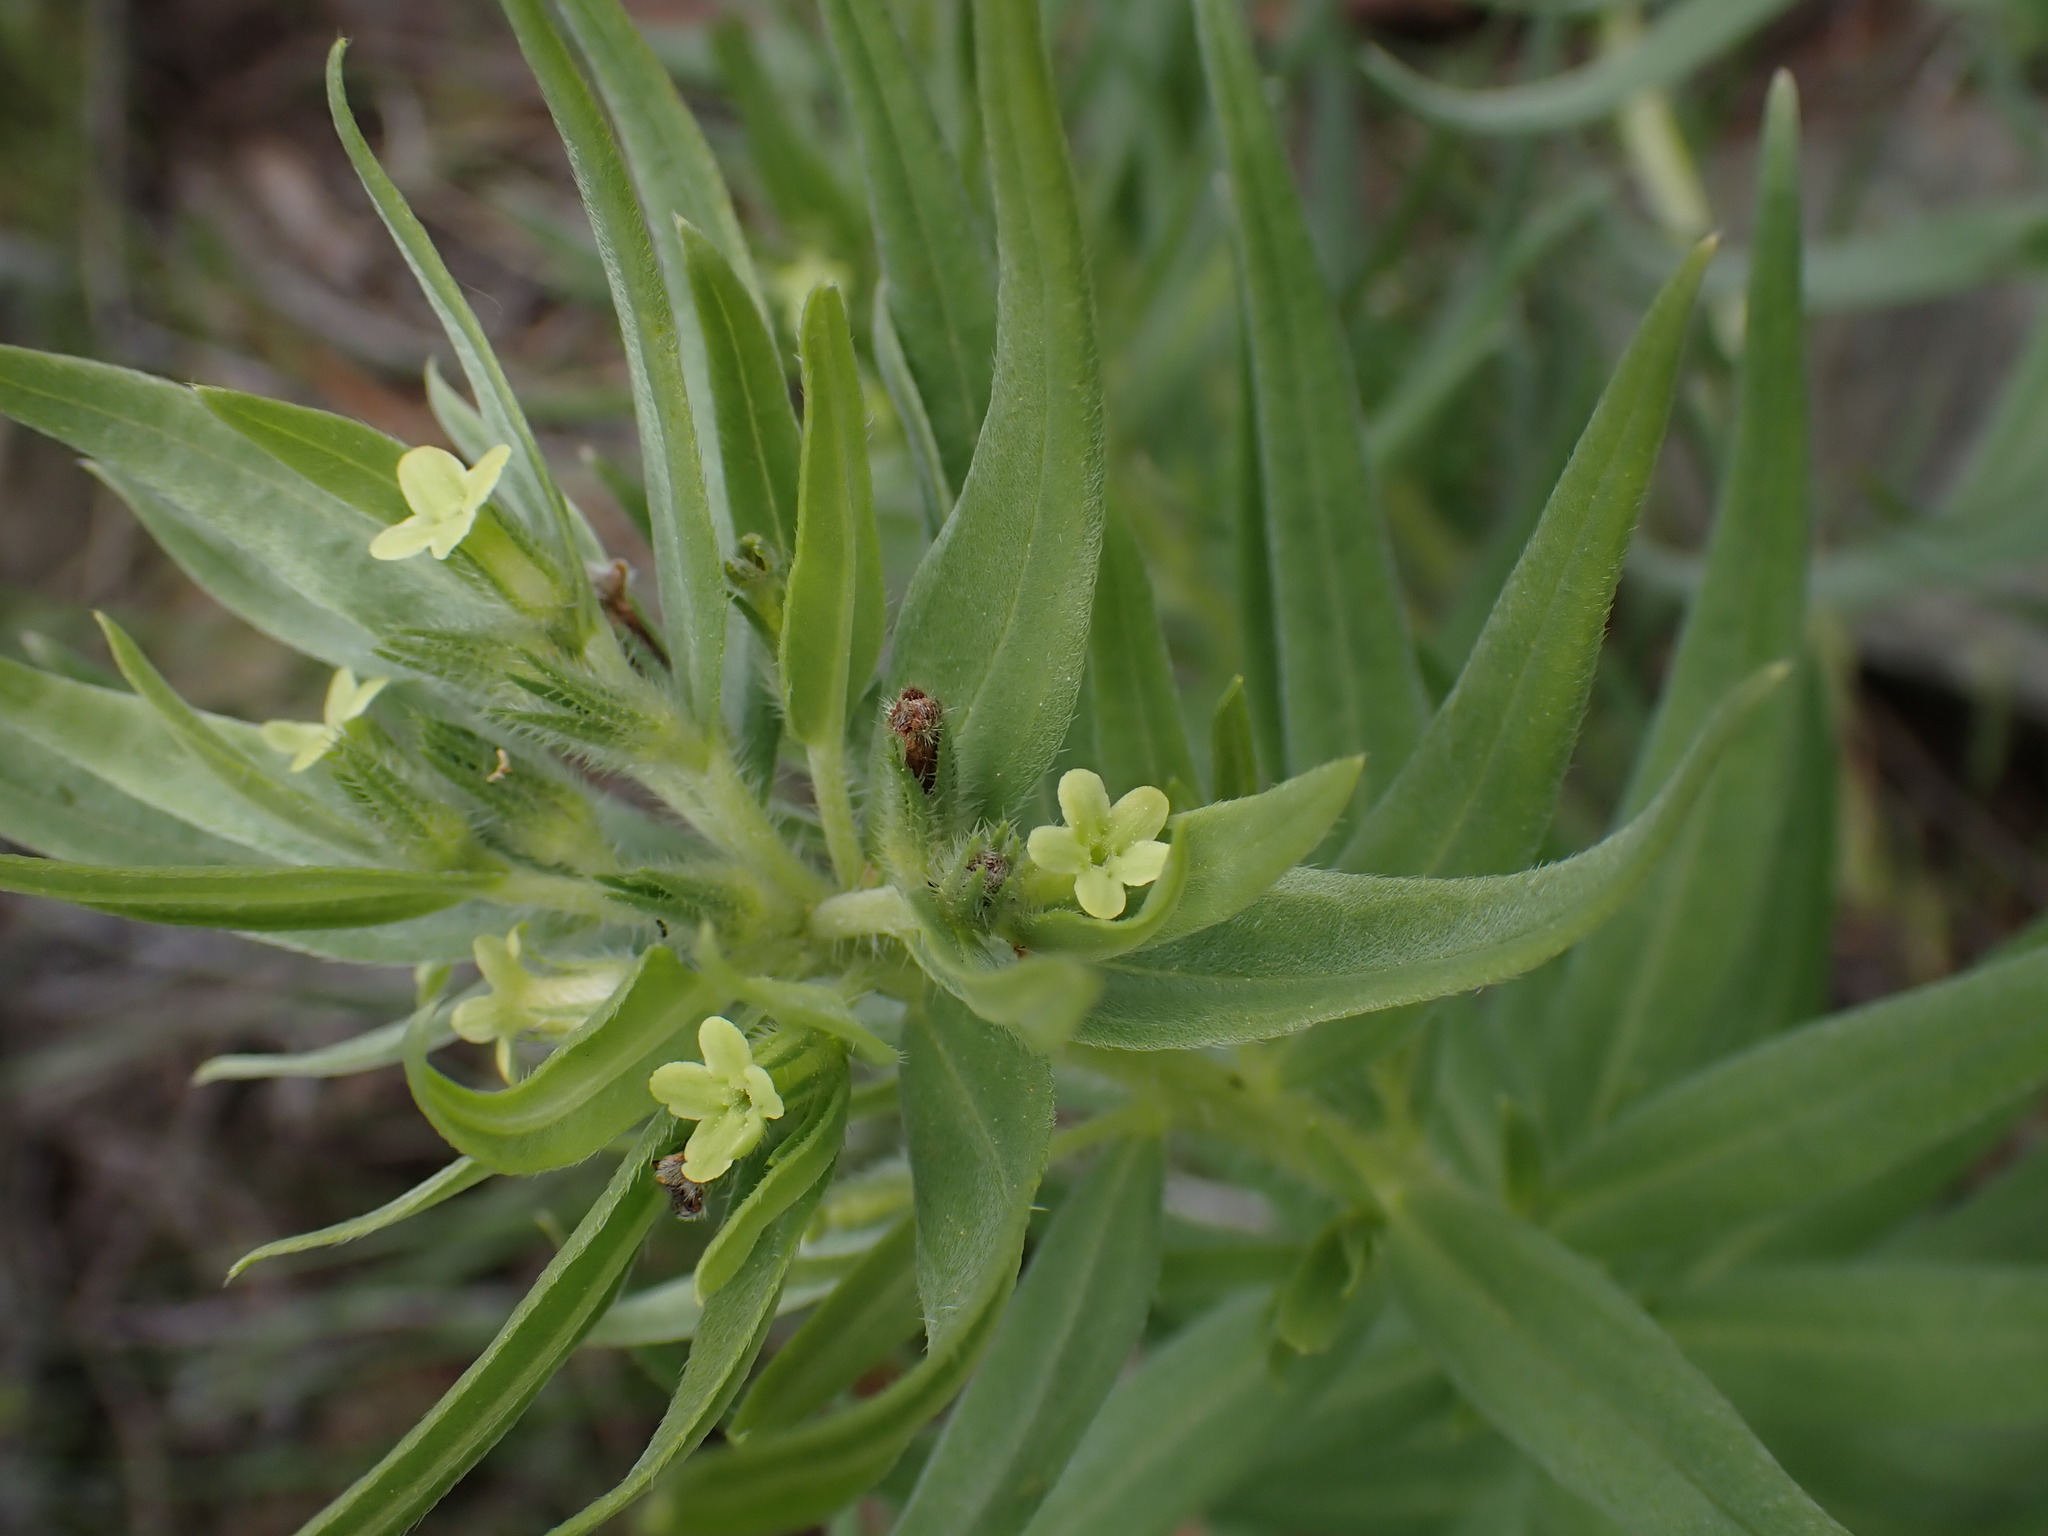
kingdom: Plantae
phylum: Tracheophyta
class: Magnoliopsida
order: Boraginales
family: Boraginaceae
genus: Lithospermum
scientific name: Lithospermum ruderale
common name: Western gromwell
